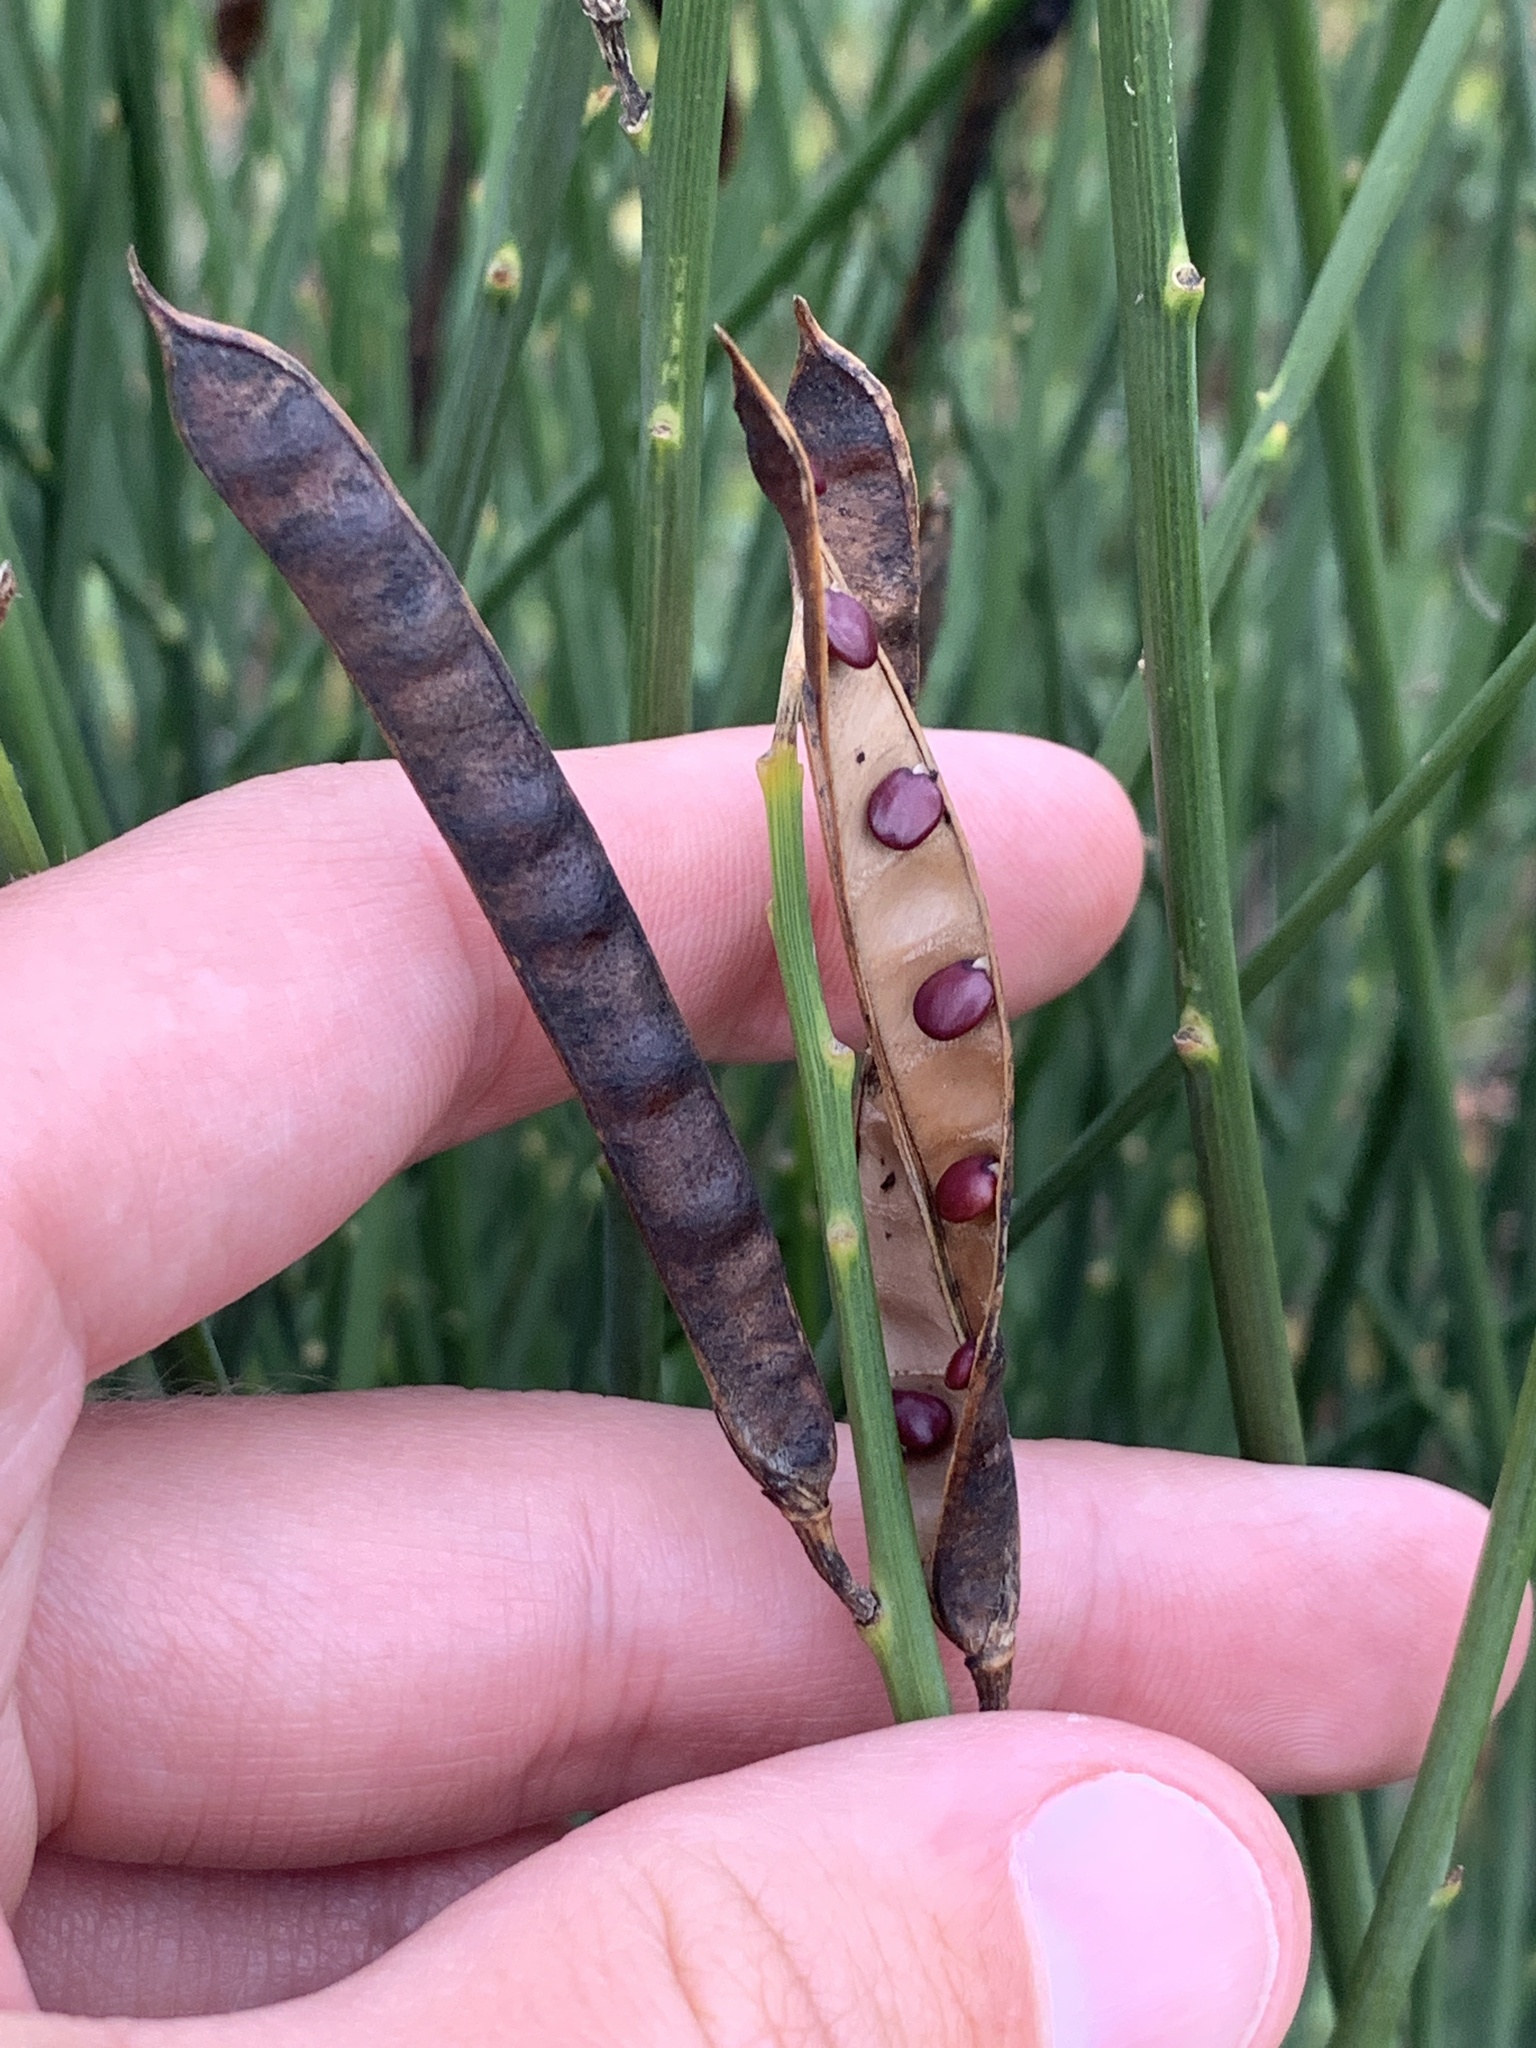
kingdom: Plantae
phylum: Tracheophyta
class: Magnoliopsida
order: Fabales
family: Fabaceae
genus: Spartium
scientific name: Spartium junceum
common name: Spanish broom
